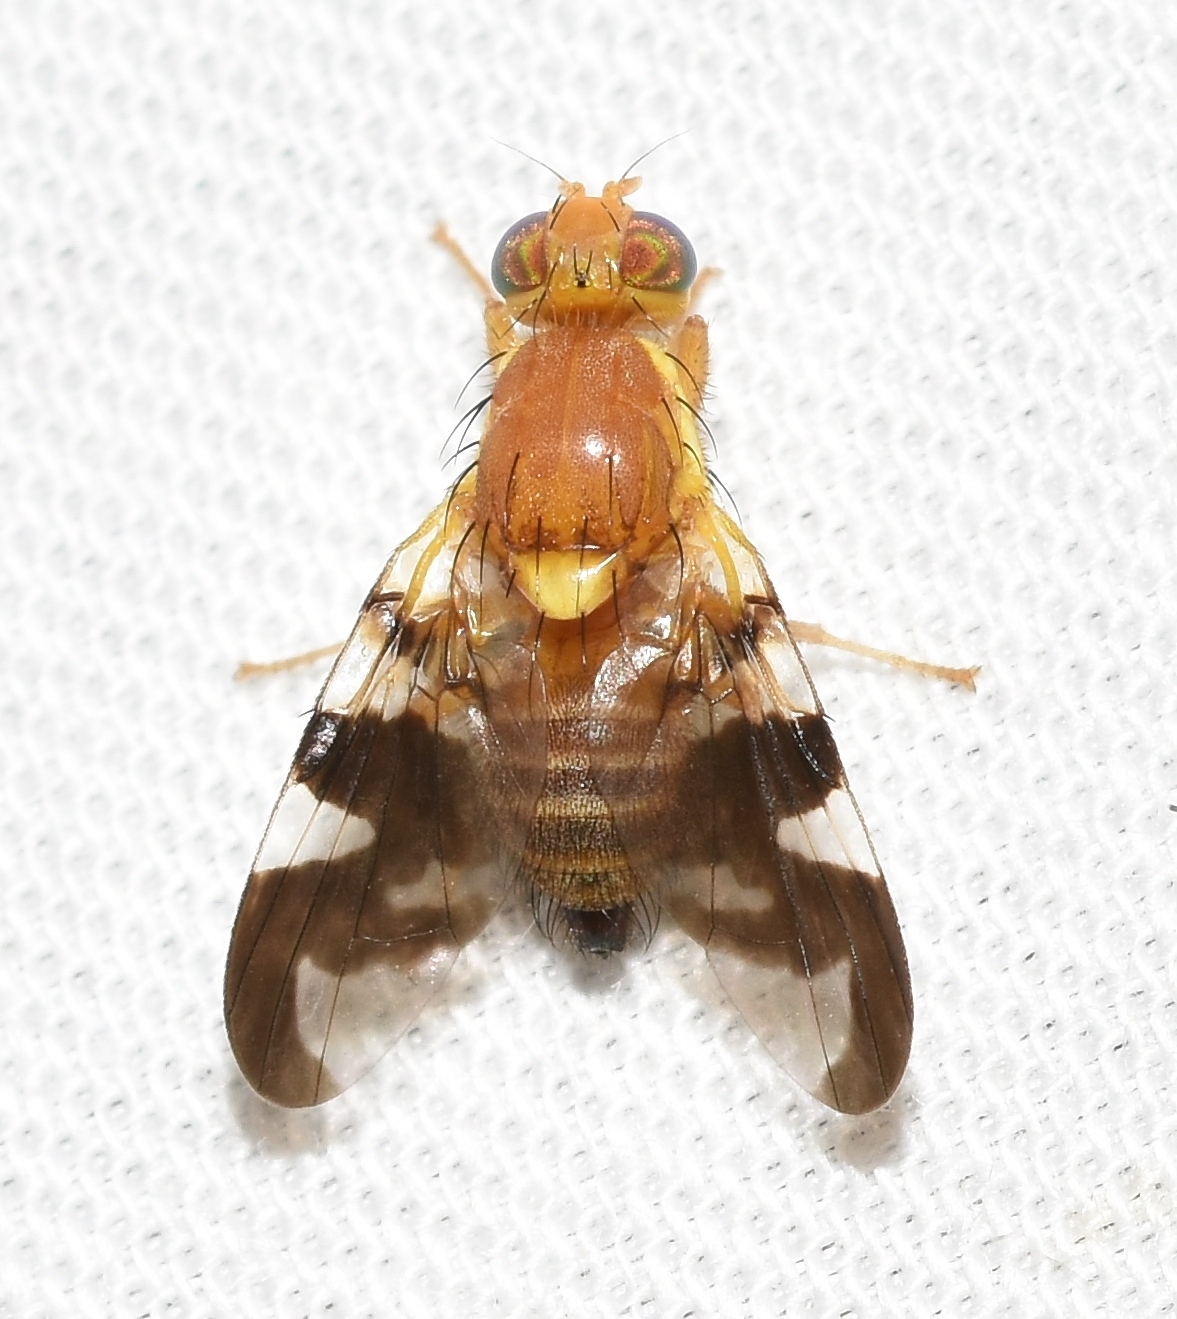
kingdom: Animalia
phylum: Arthropoda
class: Insecta
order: Diptera
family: Tephritidae
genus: Rhagoletis
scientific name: Rhagoletis suavis
